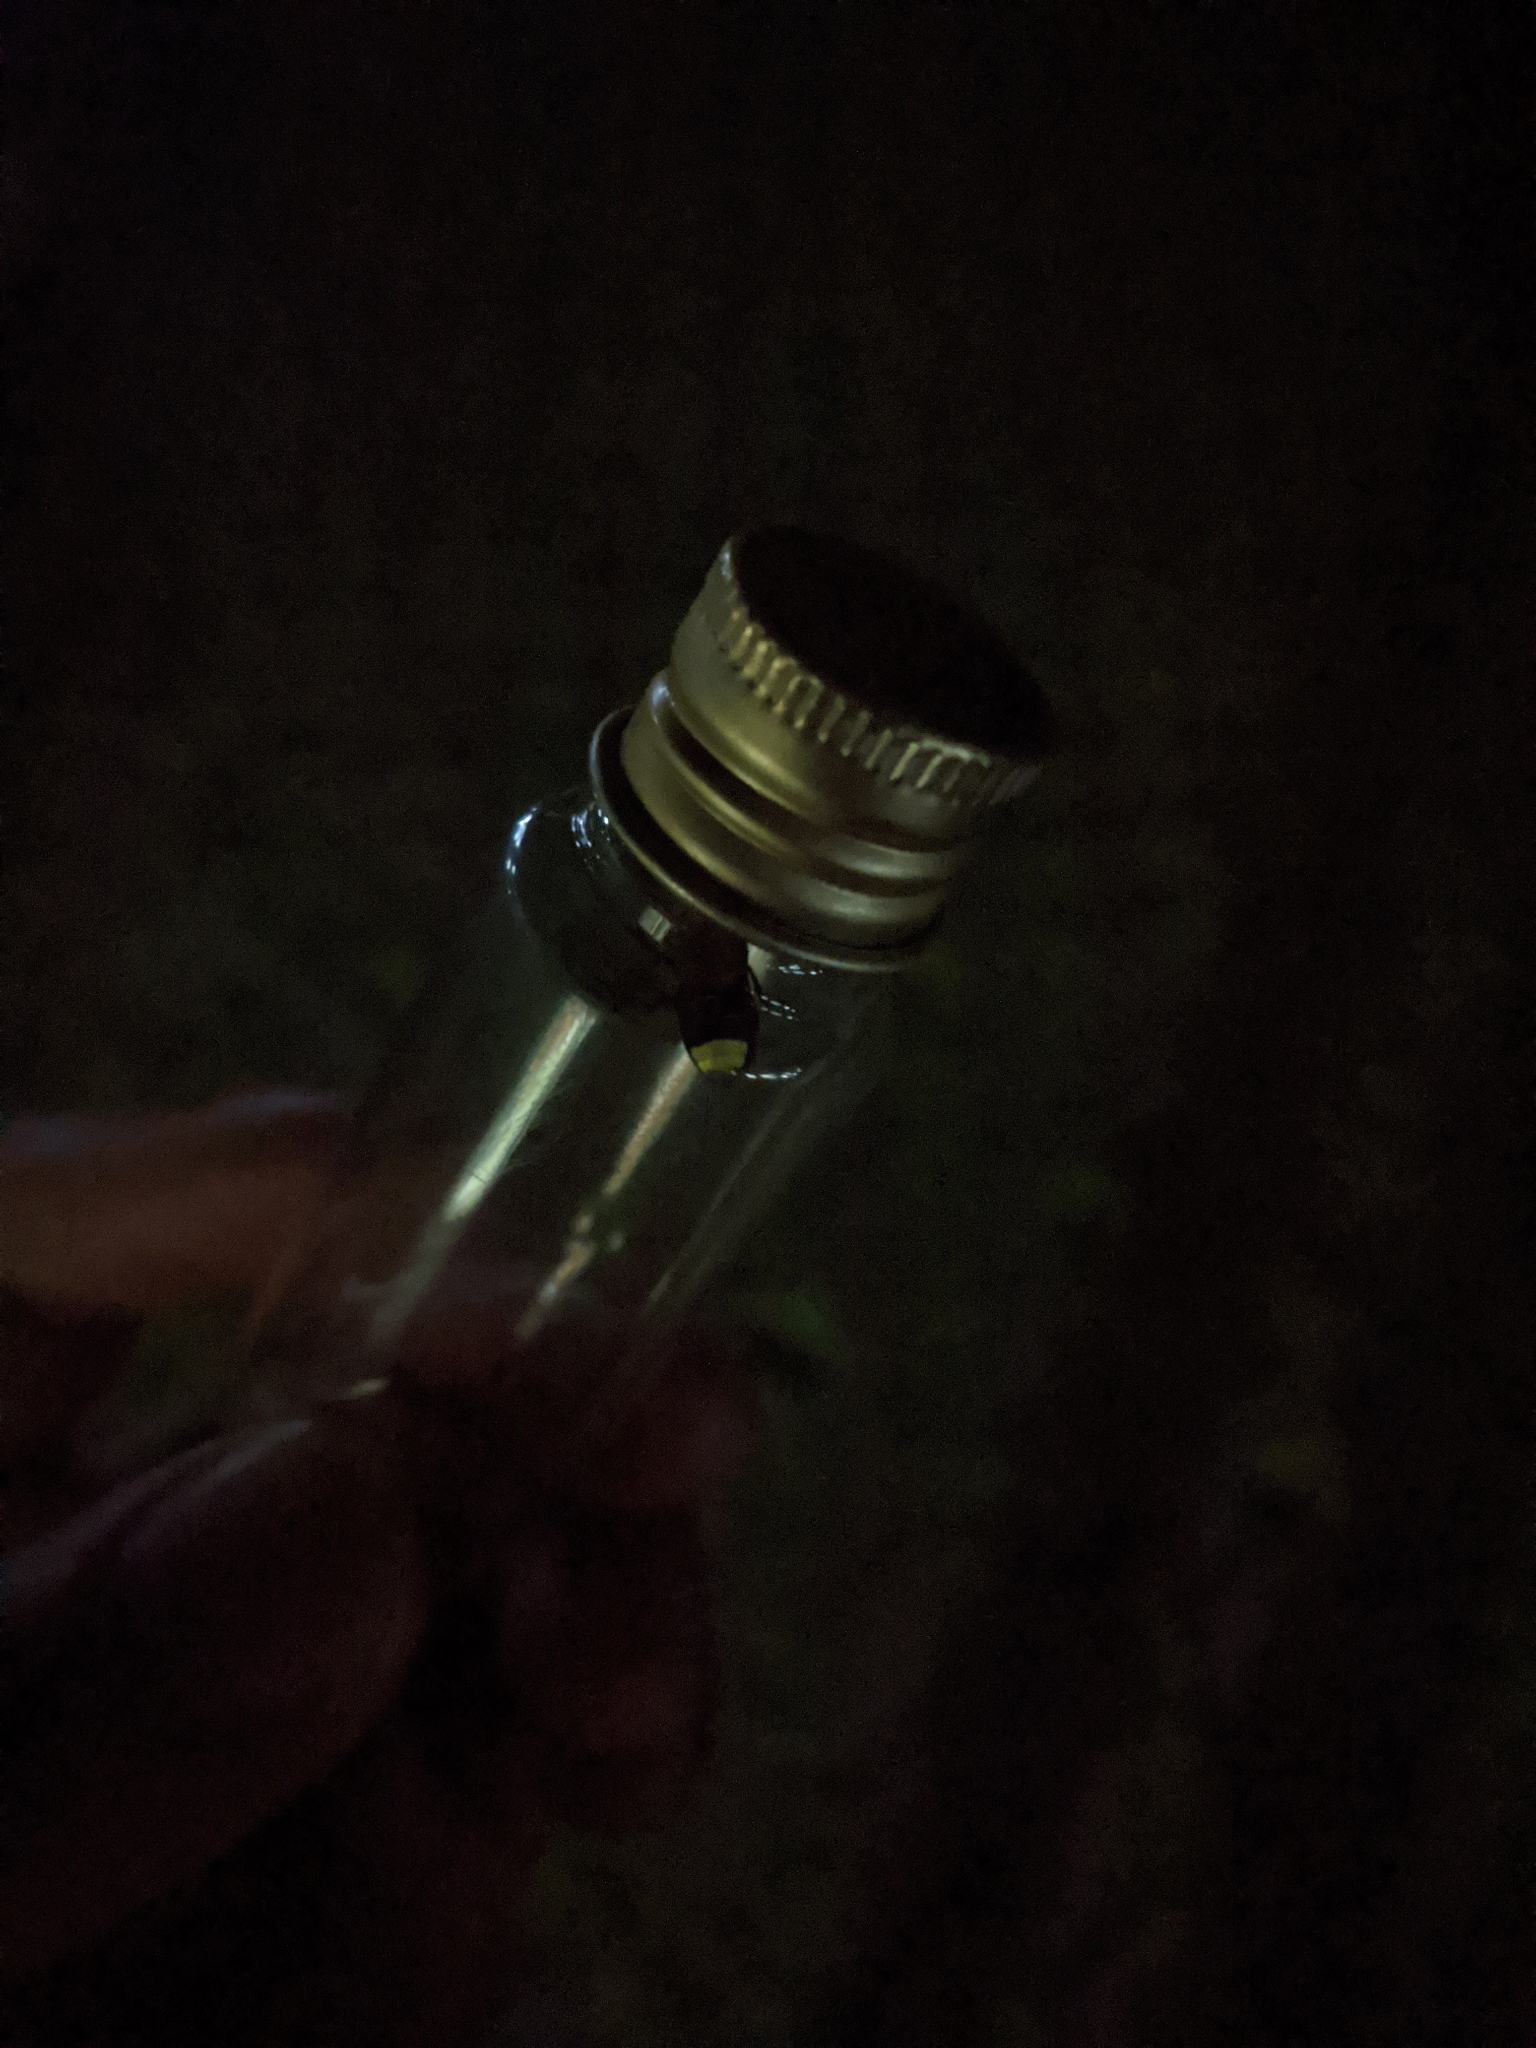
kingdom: Animalia
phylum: Arthropoda
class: Insecta
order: Coleoptera
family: Lampyridae
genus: Aquatica
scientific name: Aquatica ficta
